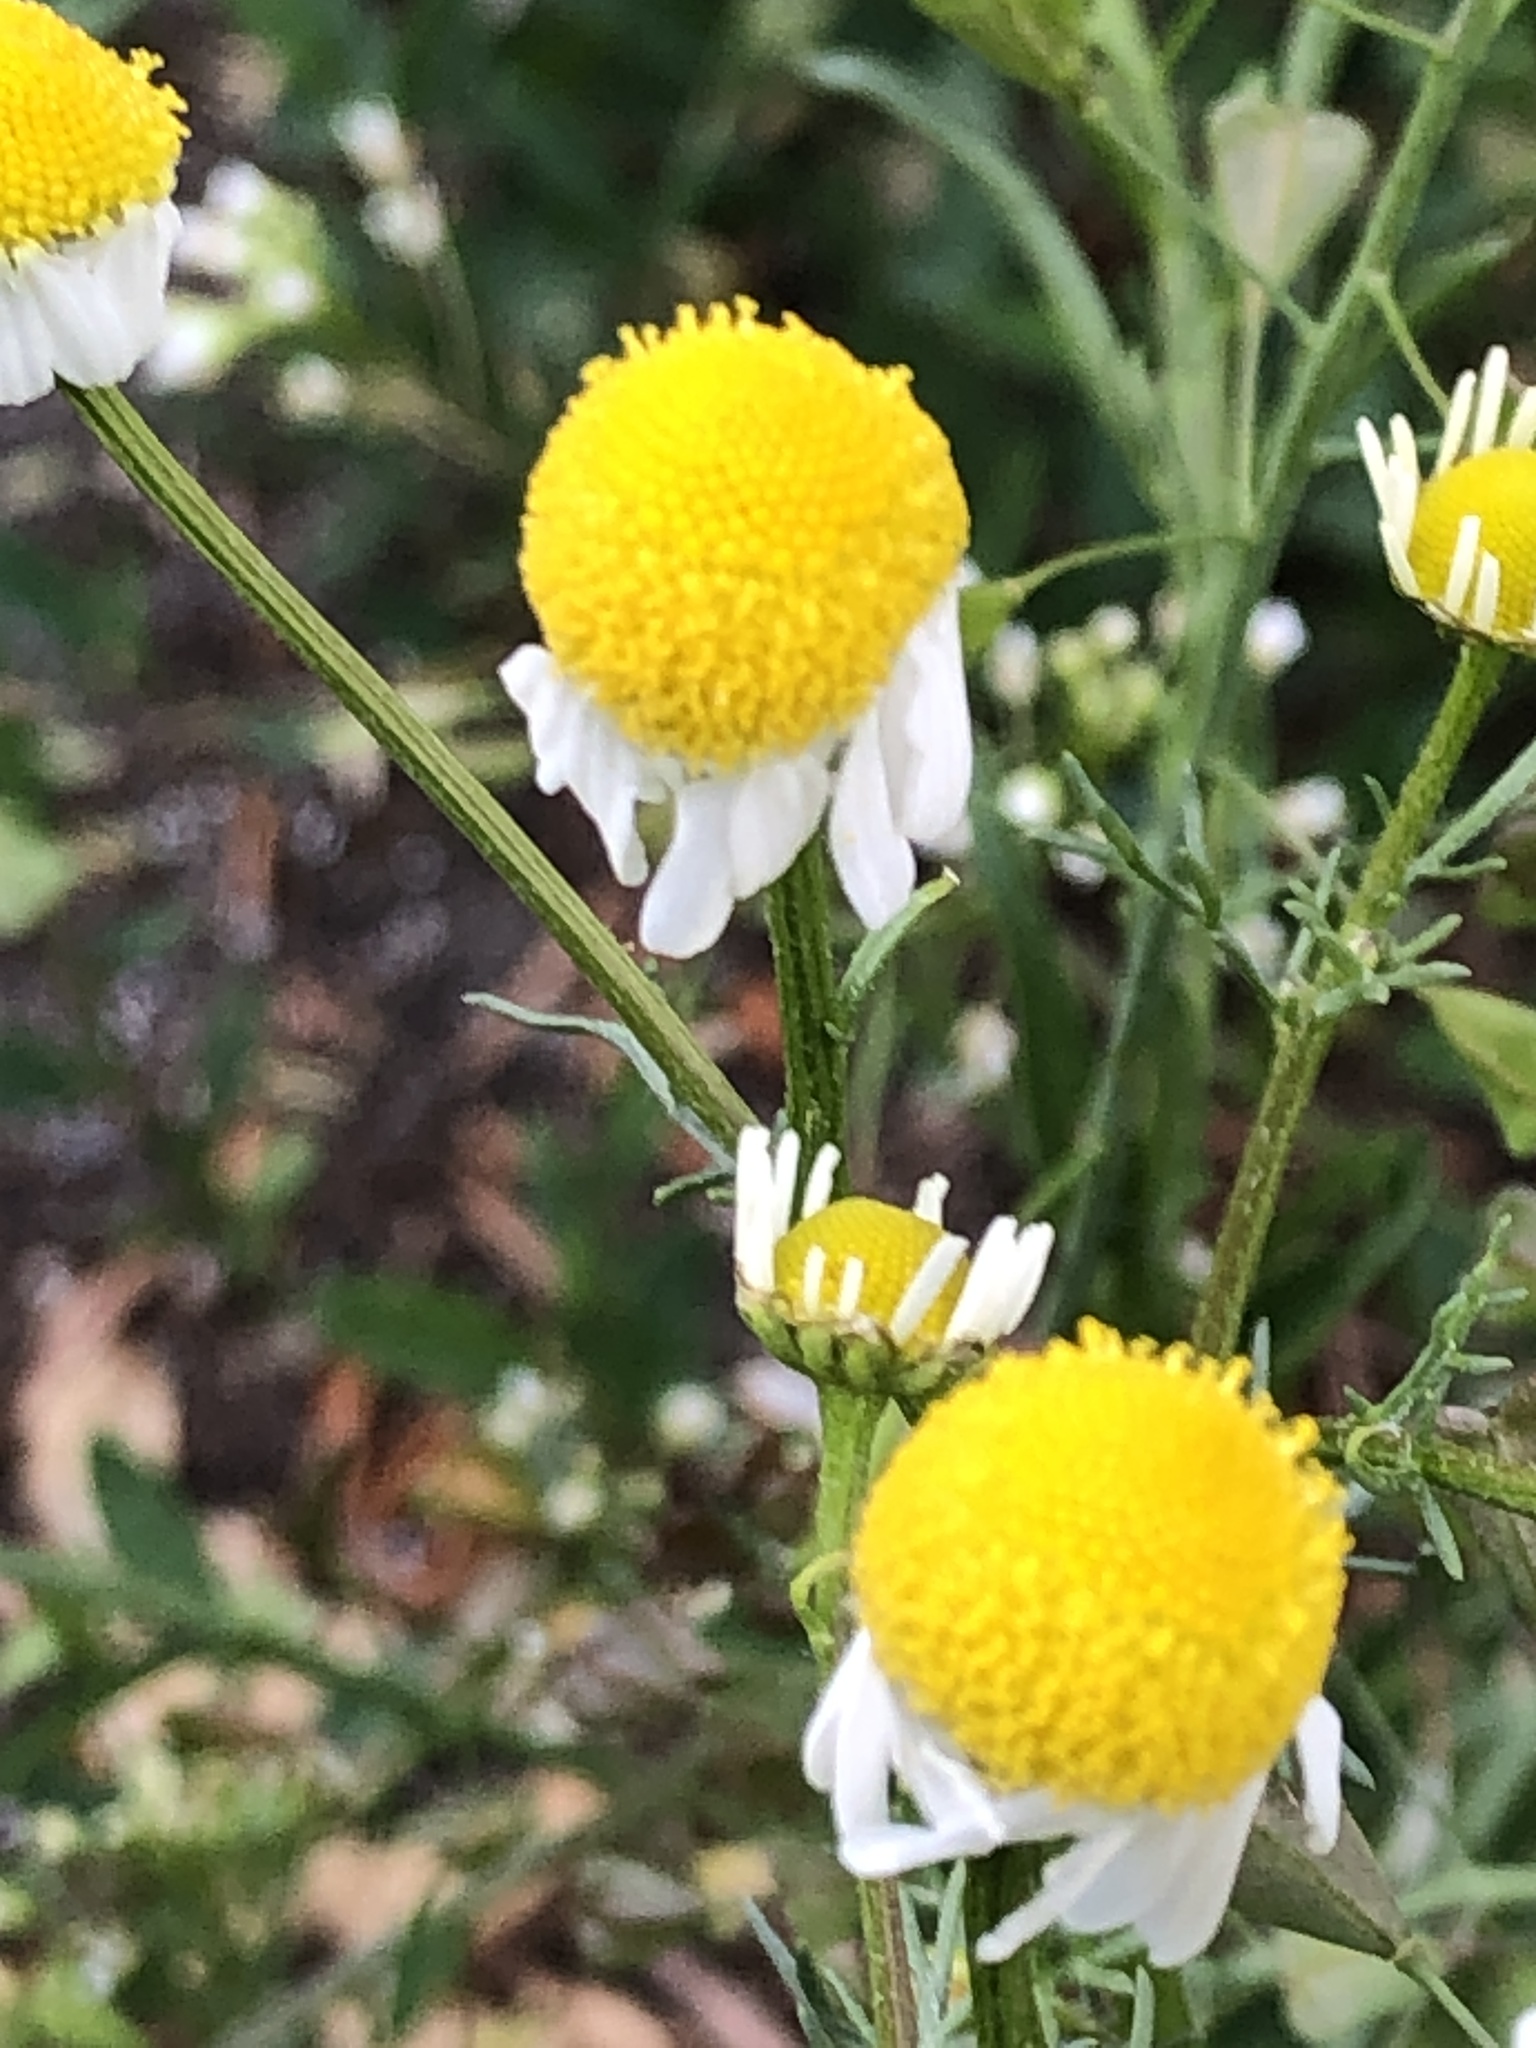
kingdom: Plantae
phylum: Tracheophyta
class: Magnoliopsida
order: Asterales
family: Asteraceae
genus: Matricaria
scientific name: Matricaria chamomilla
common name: Scented mayweed
